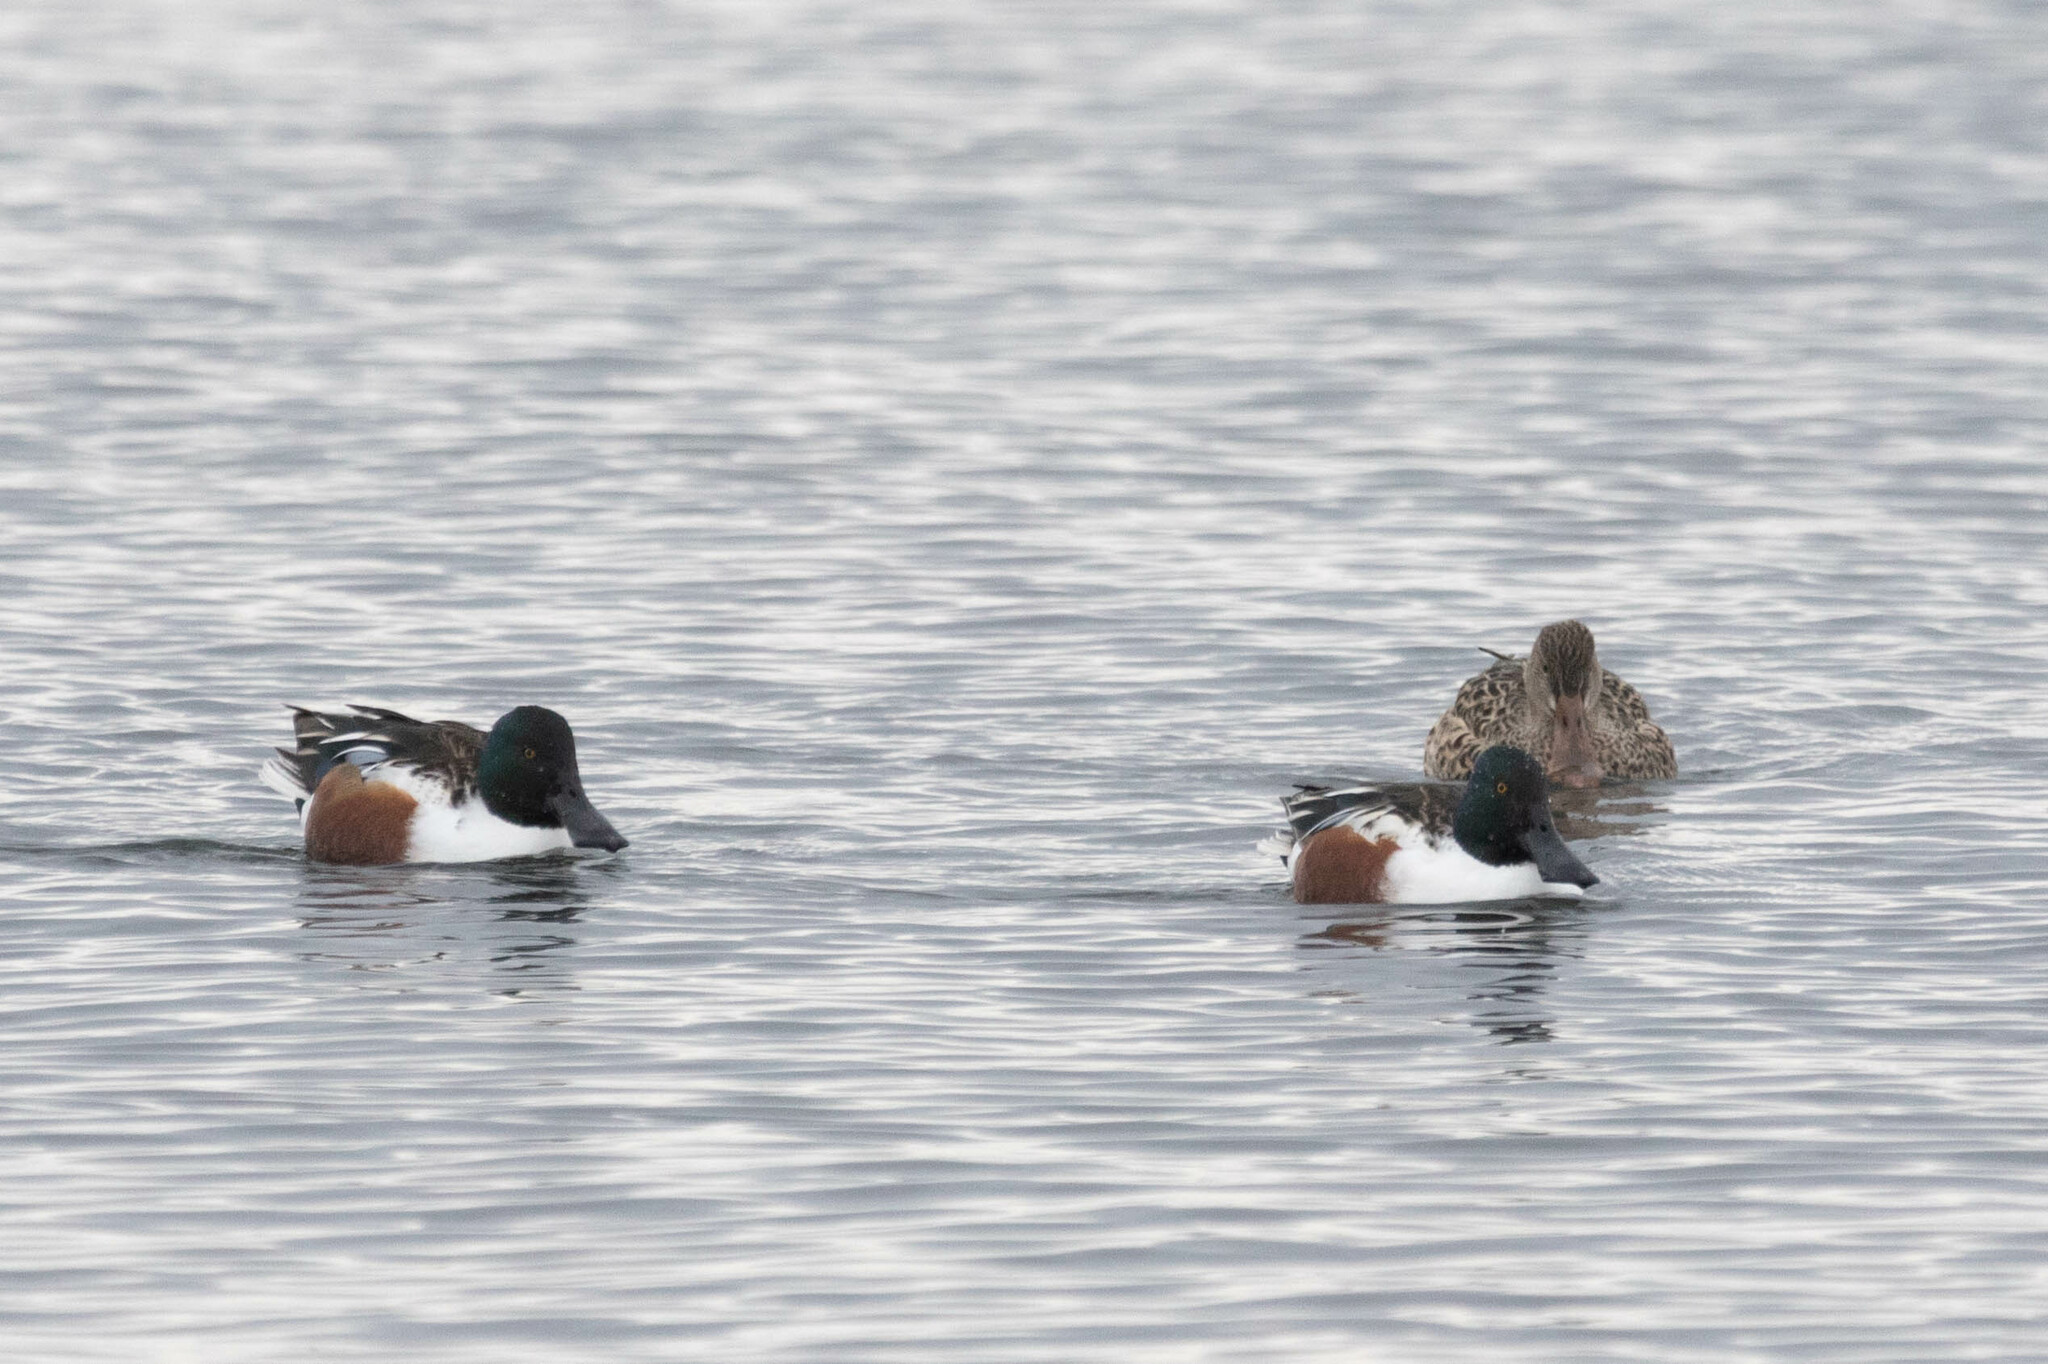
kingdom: Animalia
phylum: Chordata
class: Aves
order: Anseriformes
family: Anatidae
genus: Spatula
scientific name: Spatula clypeata
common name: Northern shoveler
